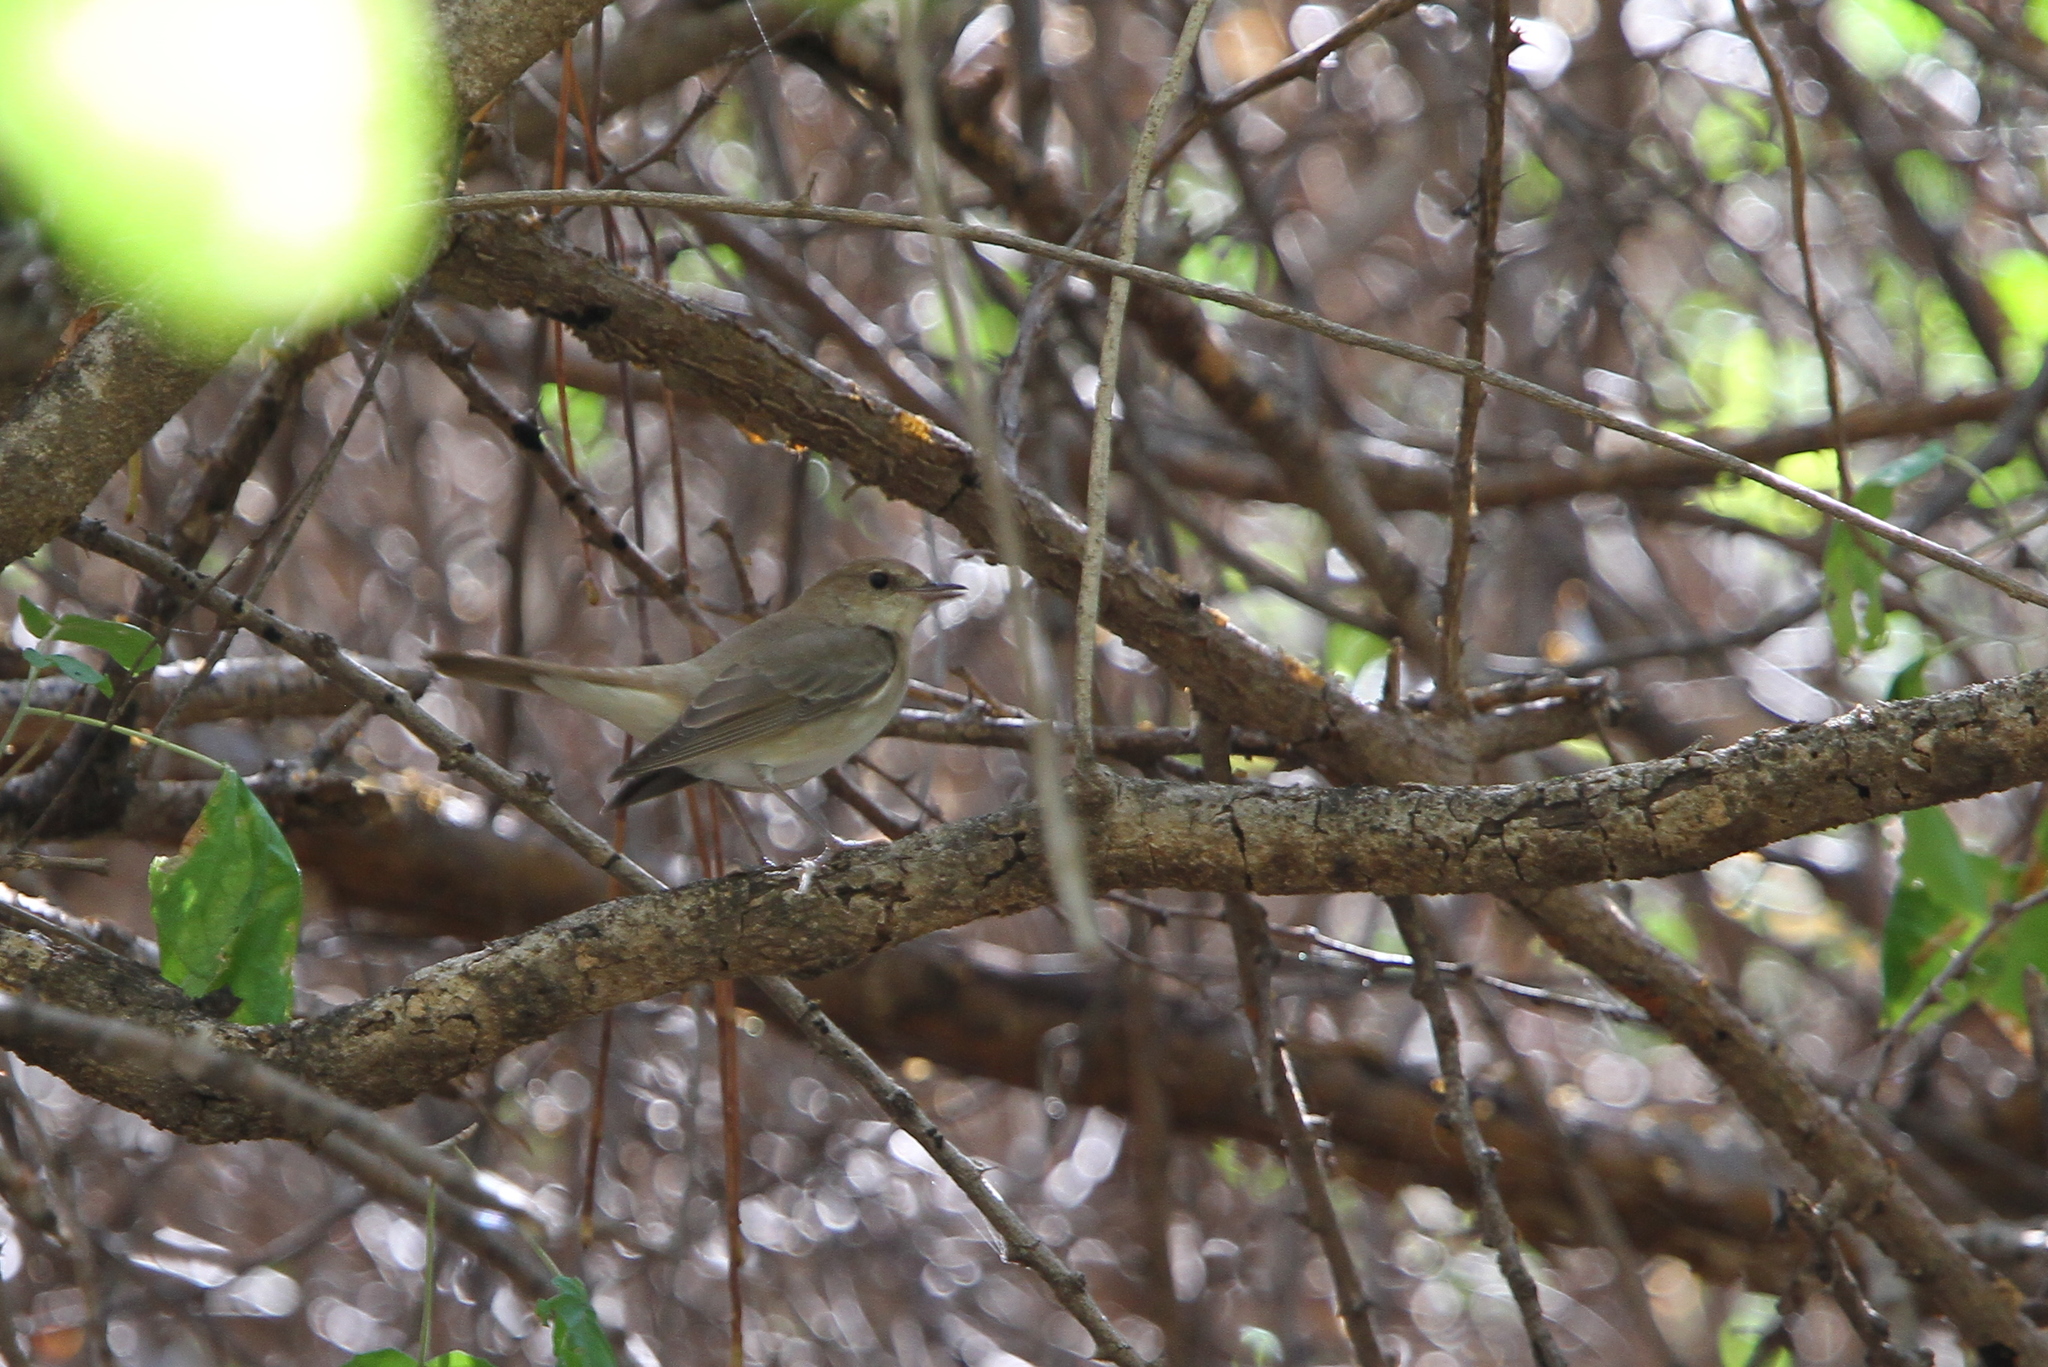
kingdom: Animalia
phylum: Chordata
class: Aves
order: Passeriformes
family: Muscicapidae
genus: Luscinia
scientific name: Luscinia megarhynchos
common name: Common nightingale
